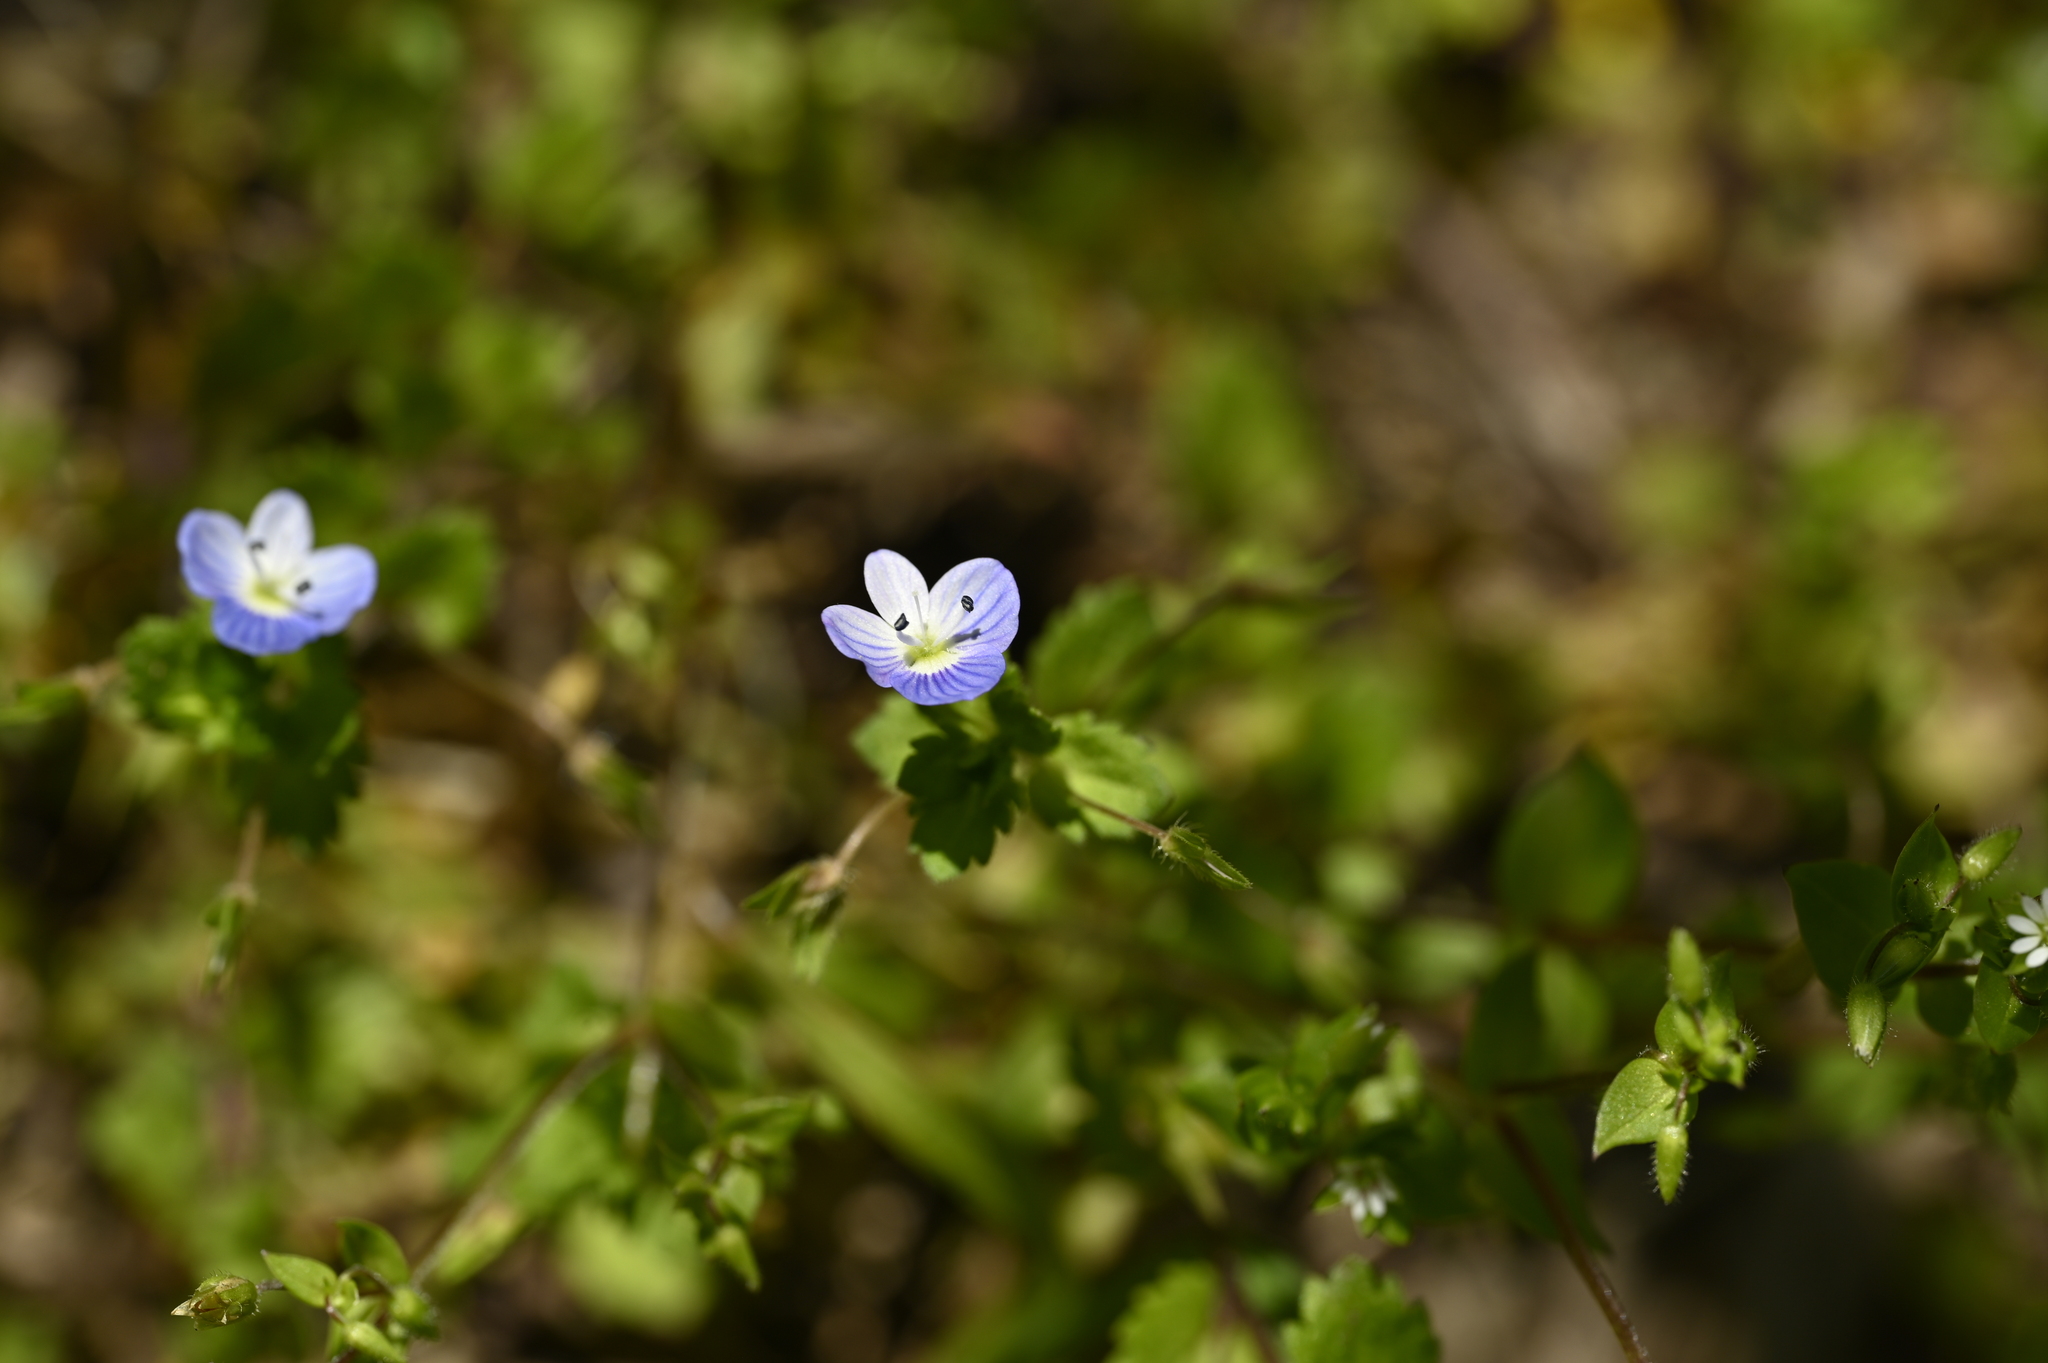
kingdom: Plantae
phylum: Tracheophyta
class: Magnoliopsida
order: Lamiales
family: Plantaginaceae
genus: Veronica
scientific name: Veronica persica
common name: Common field-speedwell
